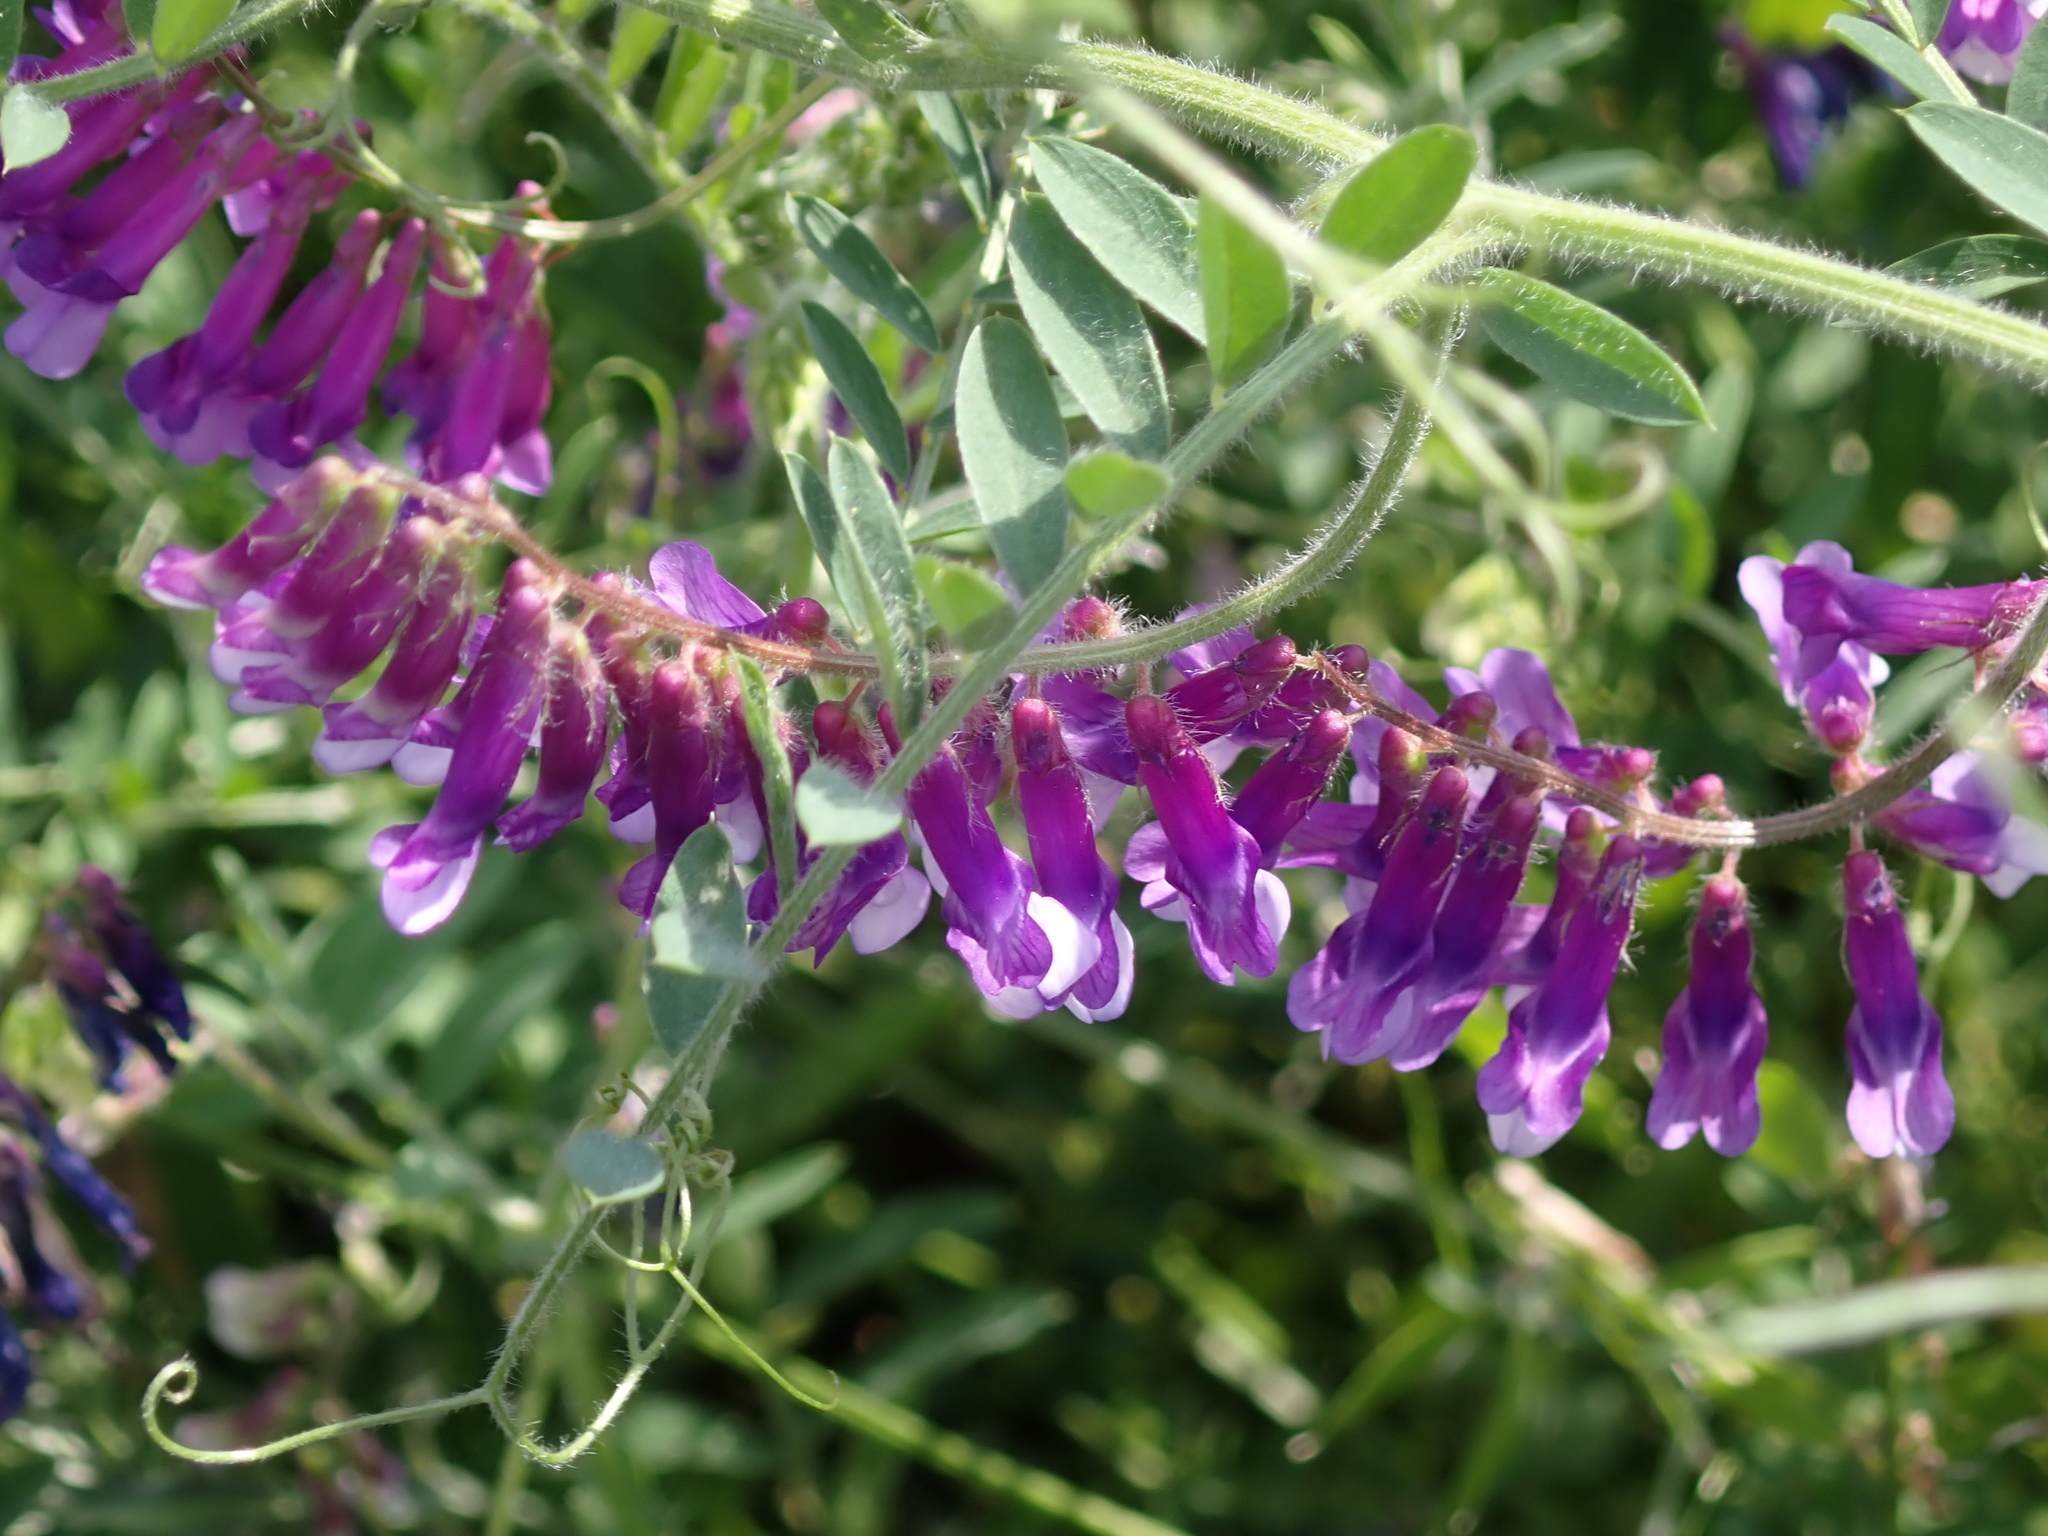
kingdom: Plantae
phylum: Tracheophyta
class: Magnoliopsida
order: Fabales
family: Fabaceae
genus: Vicia
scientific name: Vicia villosa
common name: Fodder vetch
